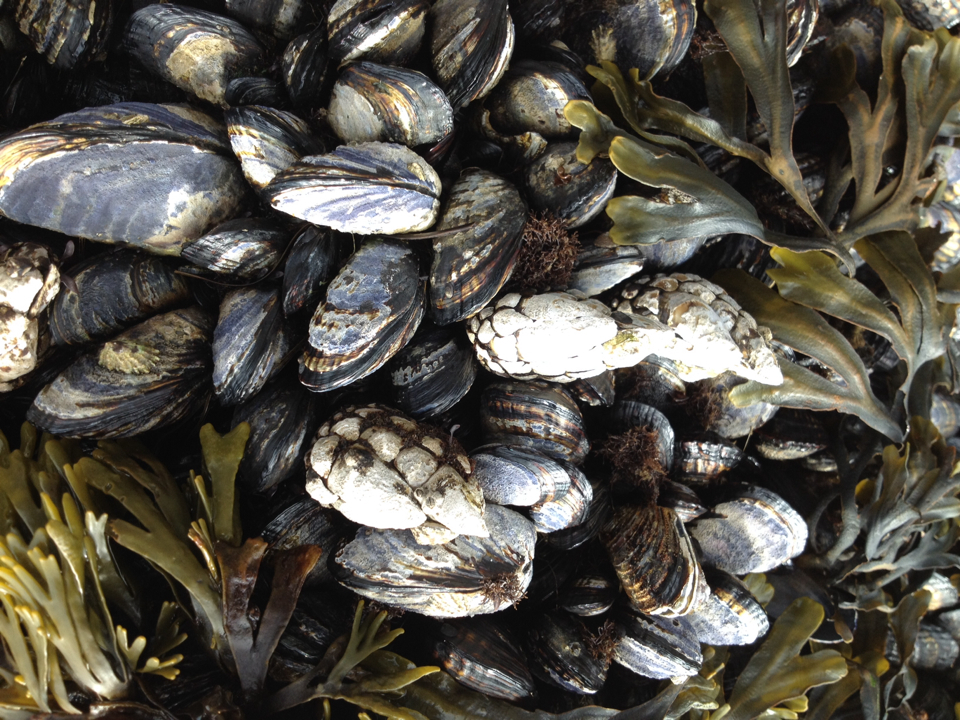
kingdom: Animalia
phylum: Arthropoda
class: Maxillopoda
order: Pedunculata
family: Pollicipedidae
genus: Pollicipes
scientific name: Pollicipes polymerus
